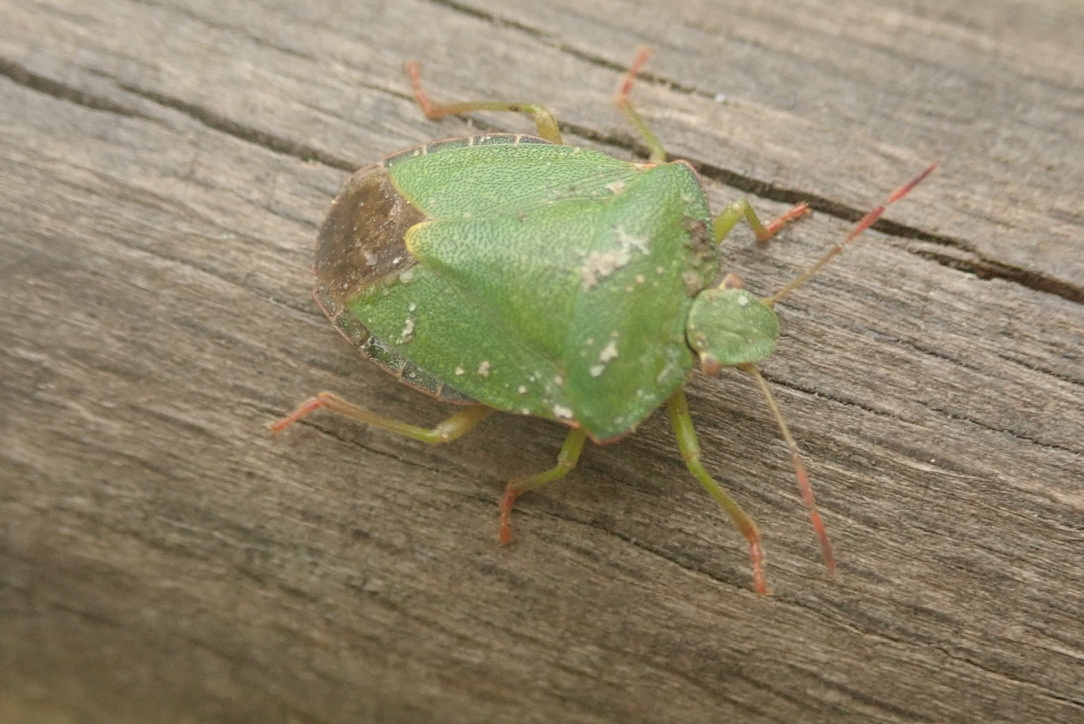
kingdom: Animalia
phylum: Arthropoda
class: Insecta
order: Hemiptera
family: Pentatomidae
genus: Palomena
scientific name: Palomena prasina
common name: Green shieldbug
